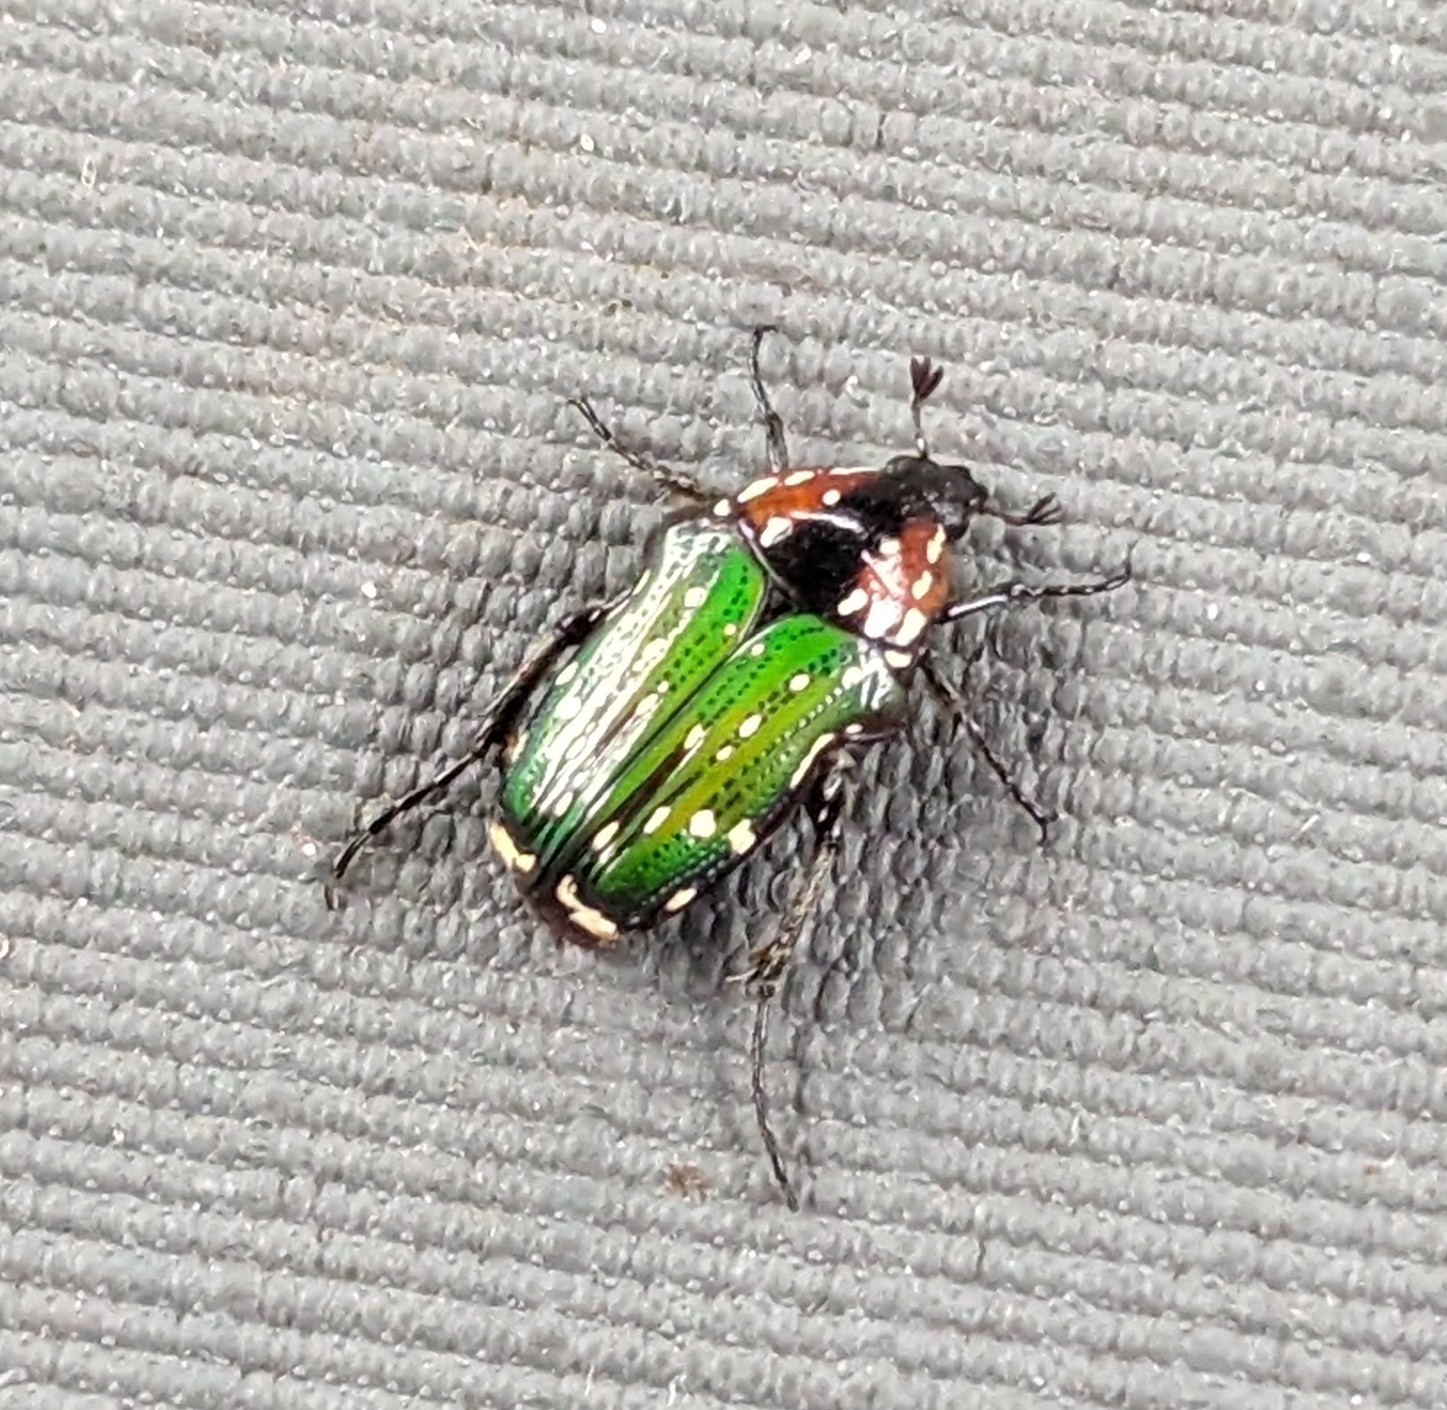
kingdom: Animalia
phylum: Arthropoda
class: Insecta
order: Coleoptera
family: Scarabaeidae
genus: Leucocelis
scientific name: Leucocelis niveoguttata
